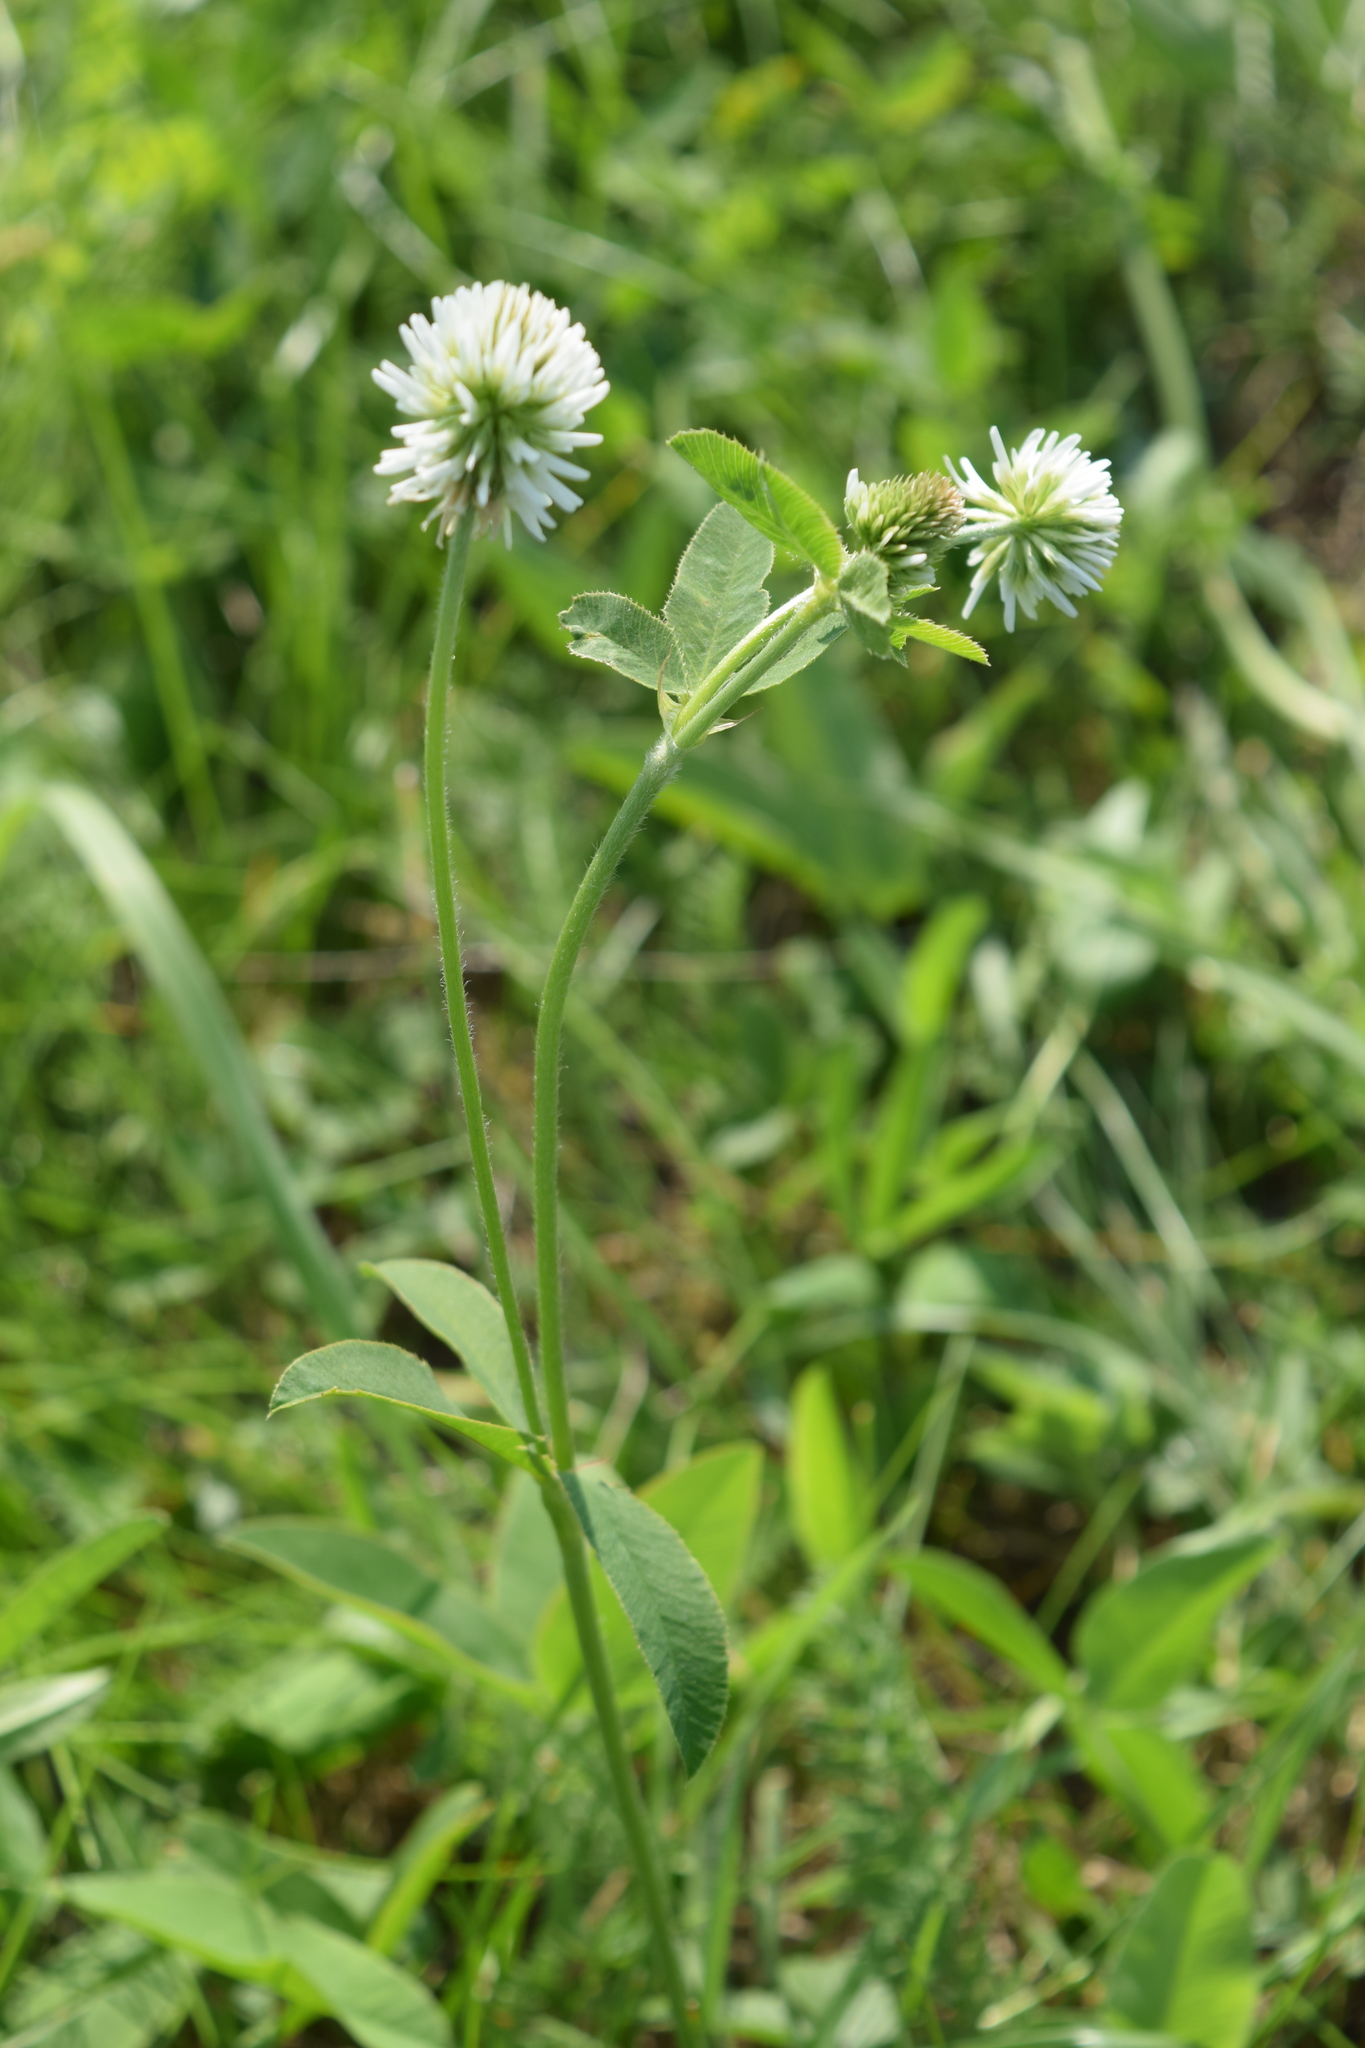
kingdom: Plantae
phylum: Tracheophyta
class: Magnoliopsida
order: Fabales
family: Fabaceae
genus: Trifolium
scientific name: Trifolium montanum
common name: Mountain clover
